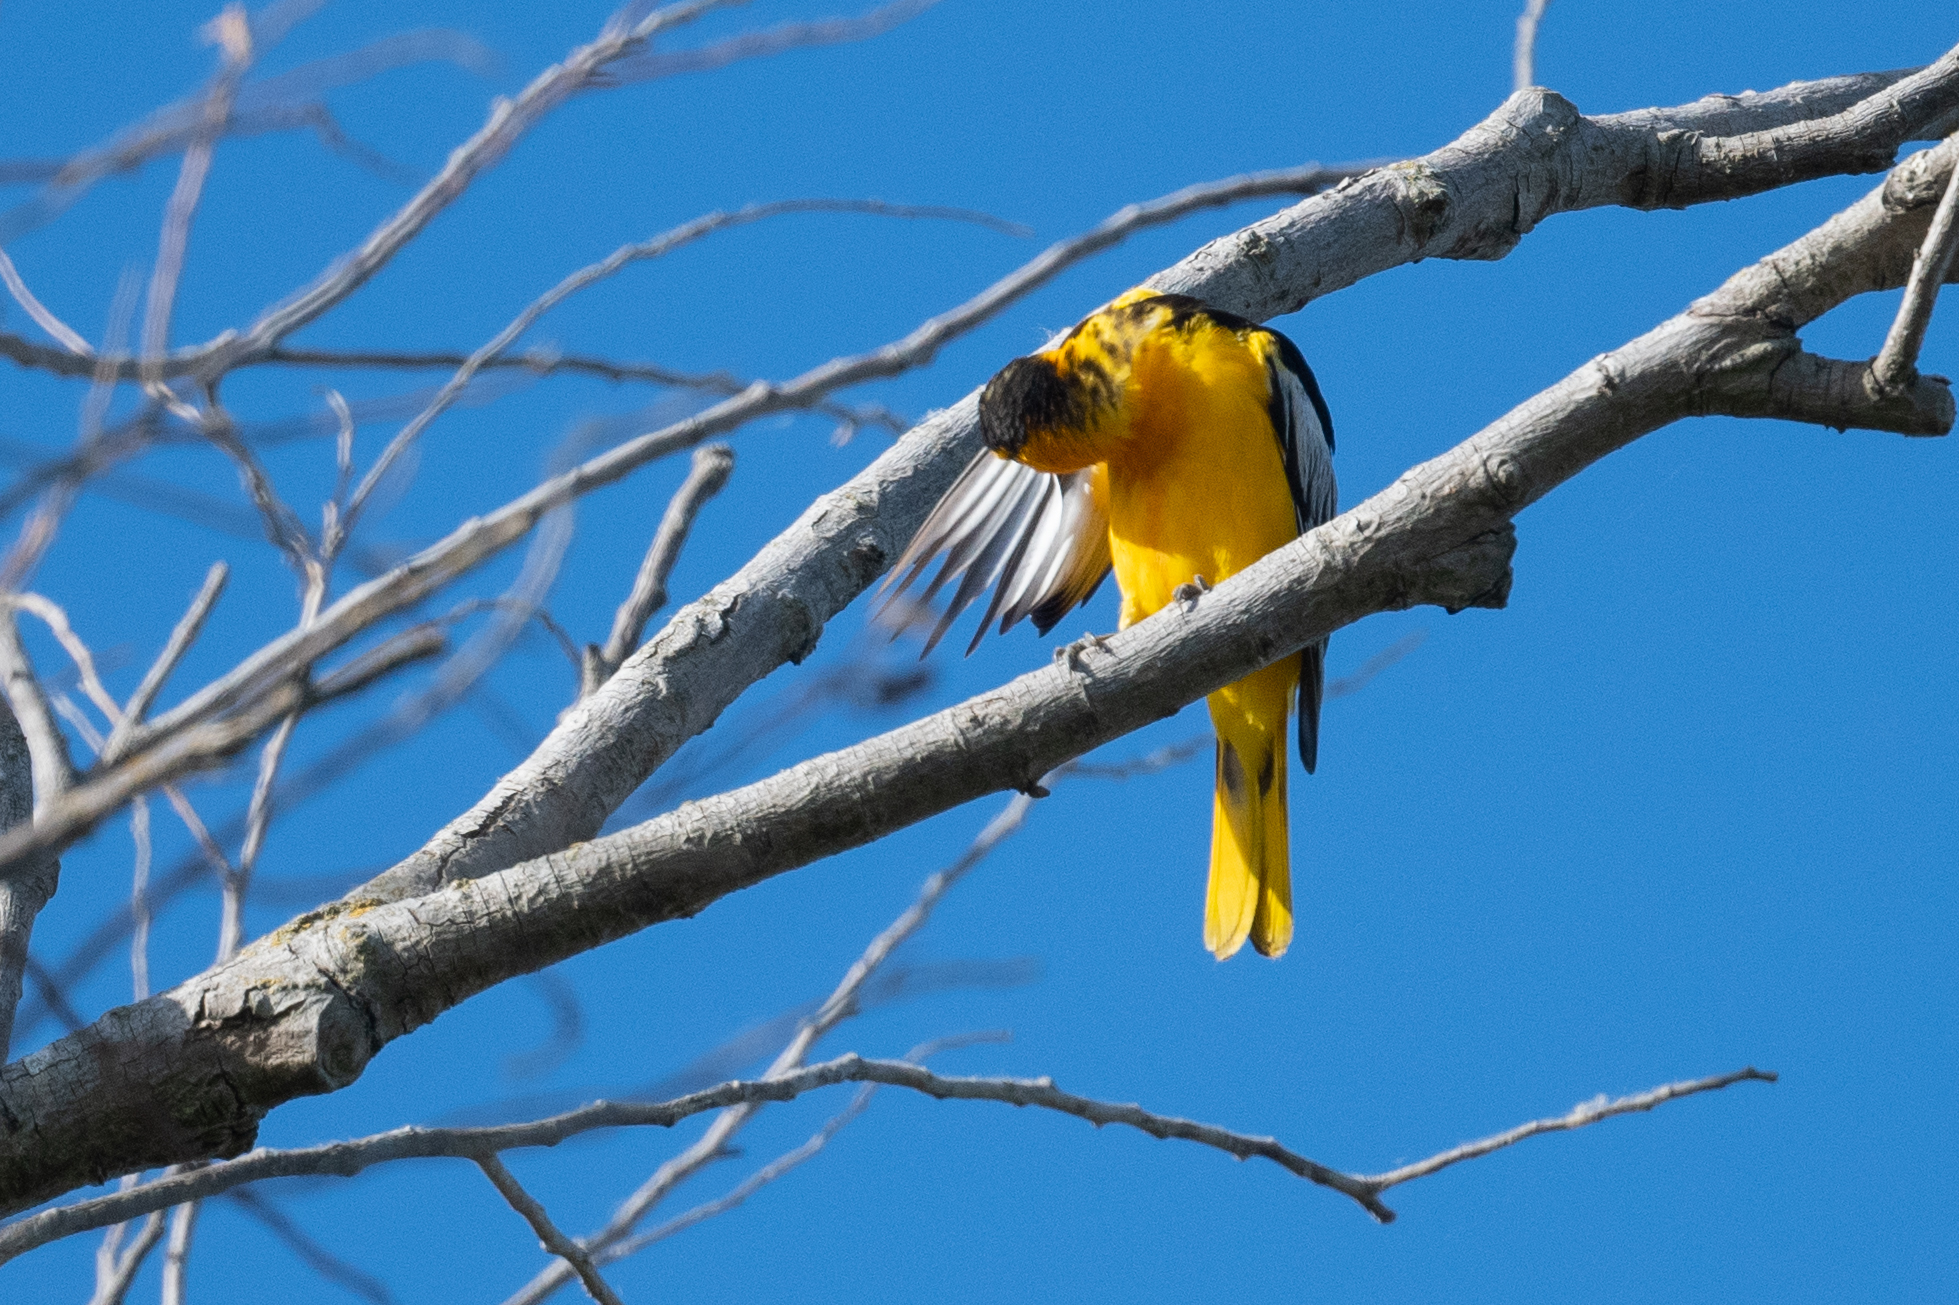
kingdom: Animalia
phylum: Chordata
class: Aves
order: Passeriformes
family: Icteridae
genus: Icterus
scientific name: Icterus bullockii
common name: Bullock's oriole
